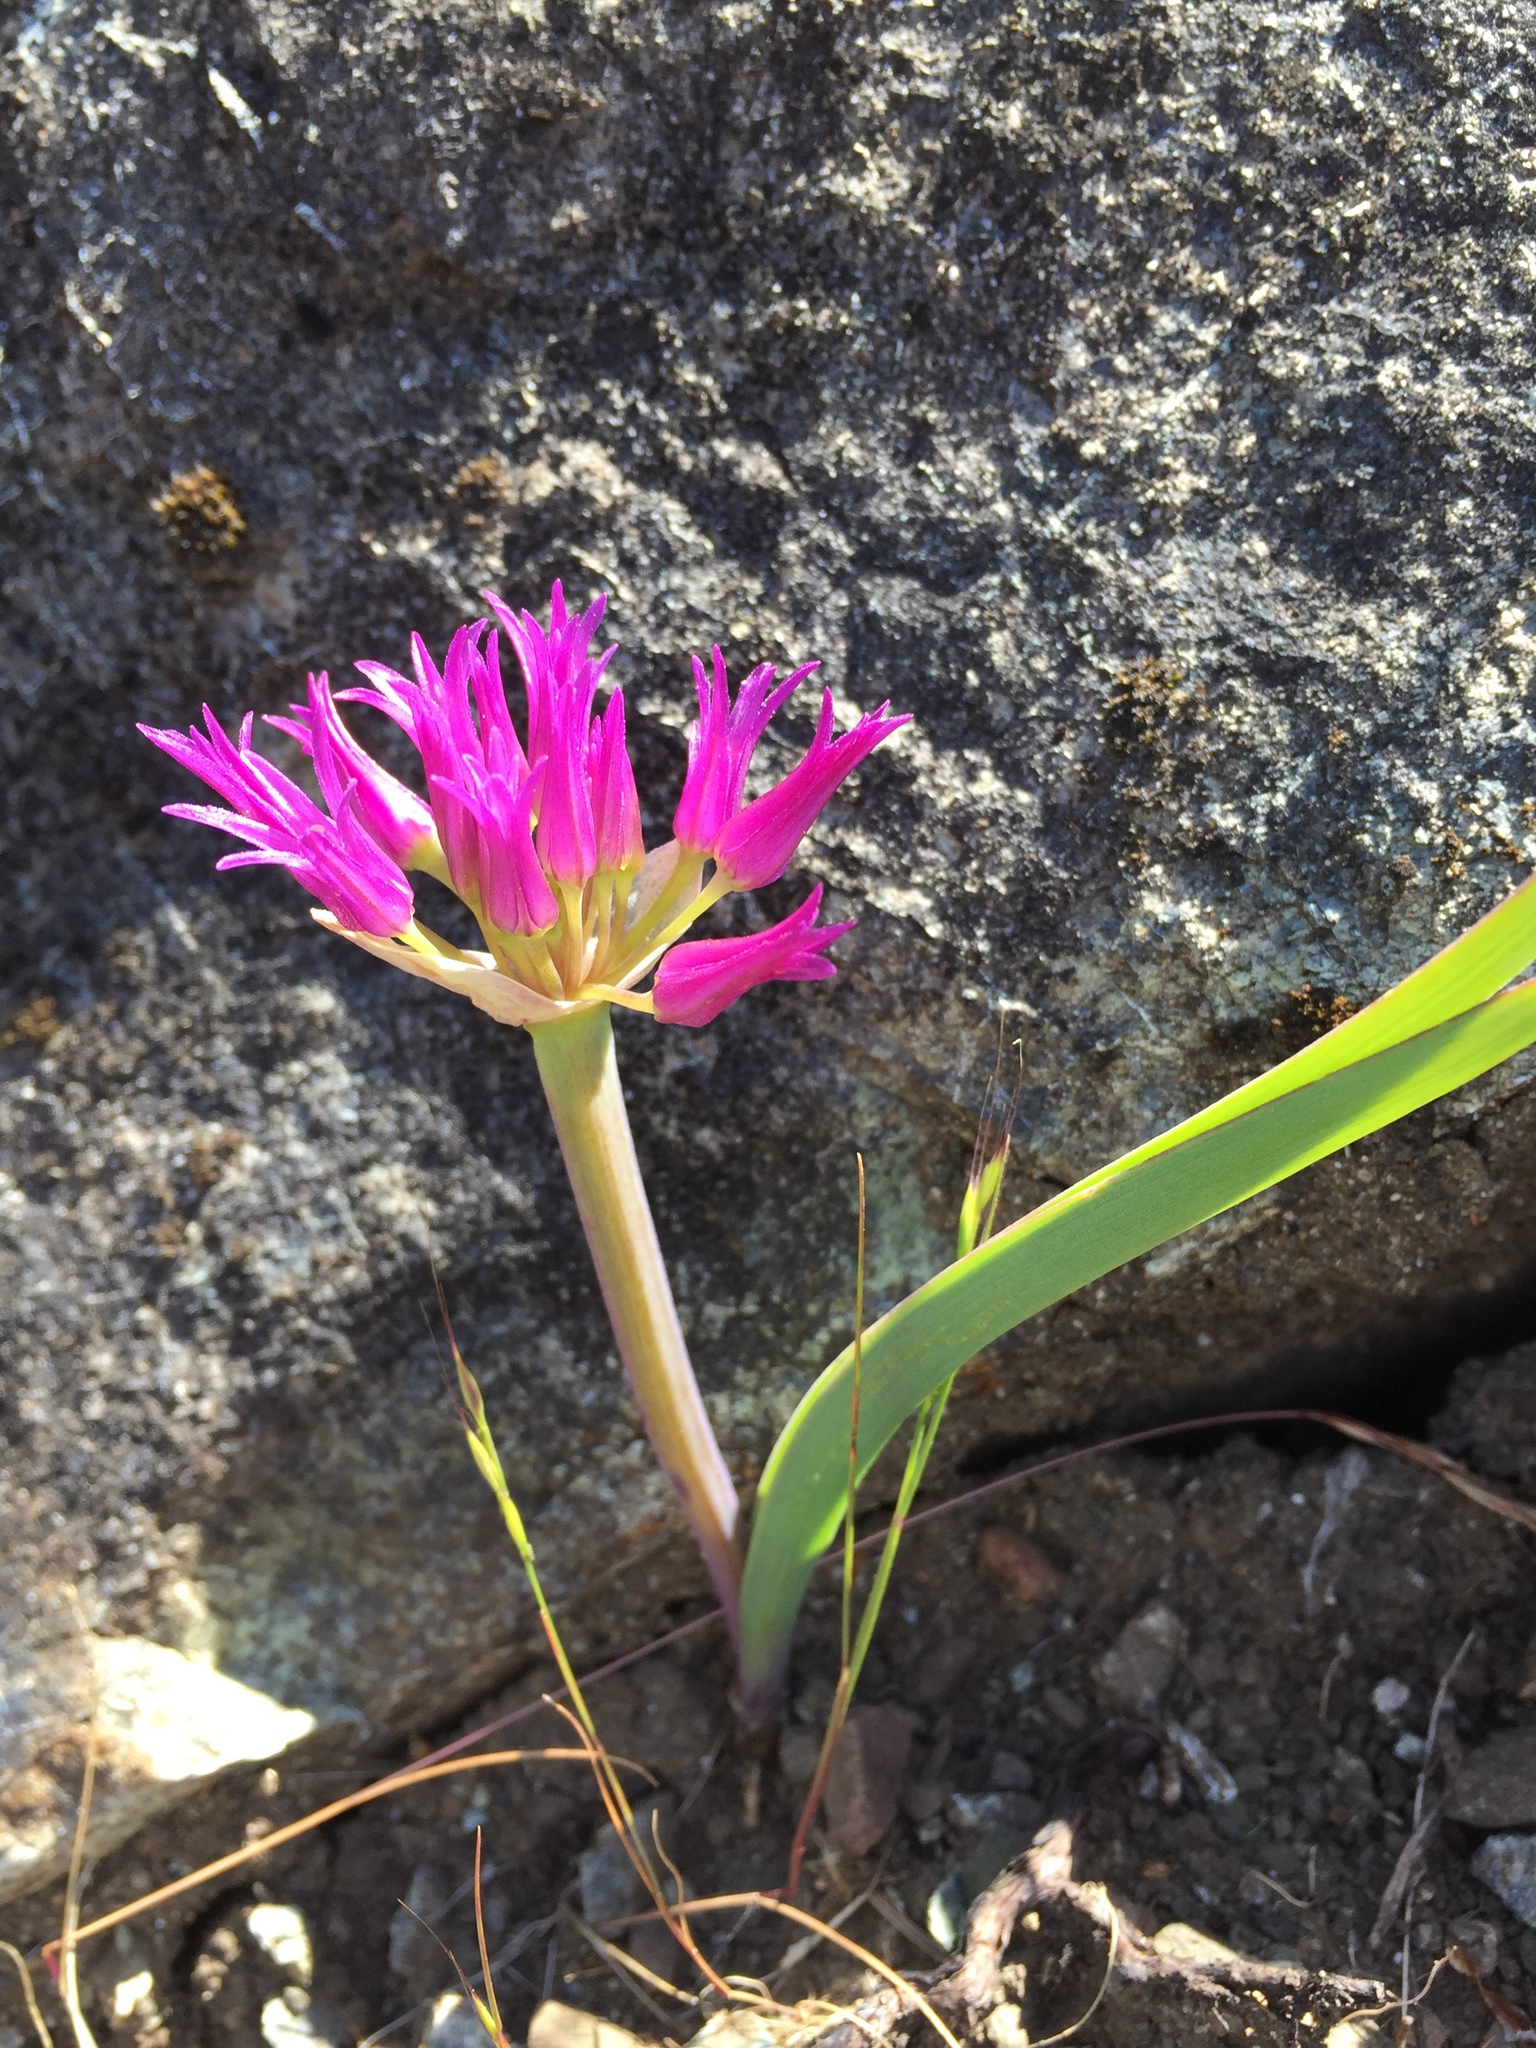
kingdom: Plantae
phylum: Tracheophyta
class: Liliopsida
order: Asparagales
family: Amaryllidaceae
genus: Allium
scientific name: Allium falcifolium
